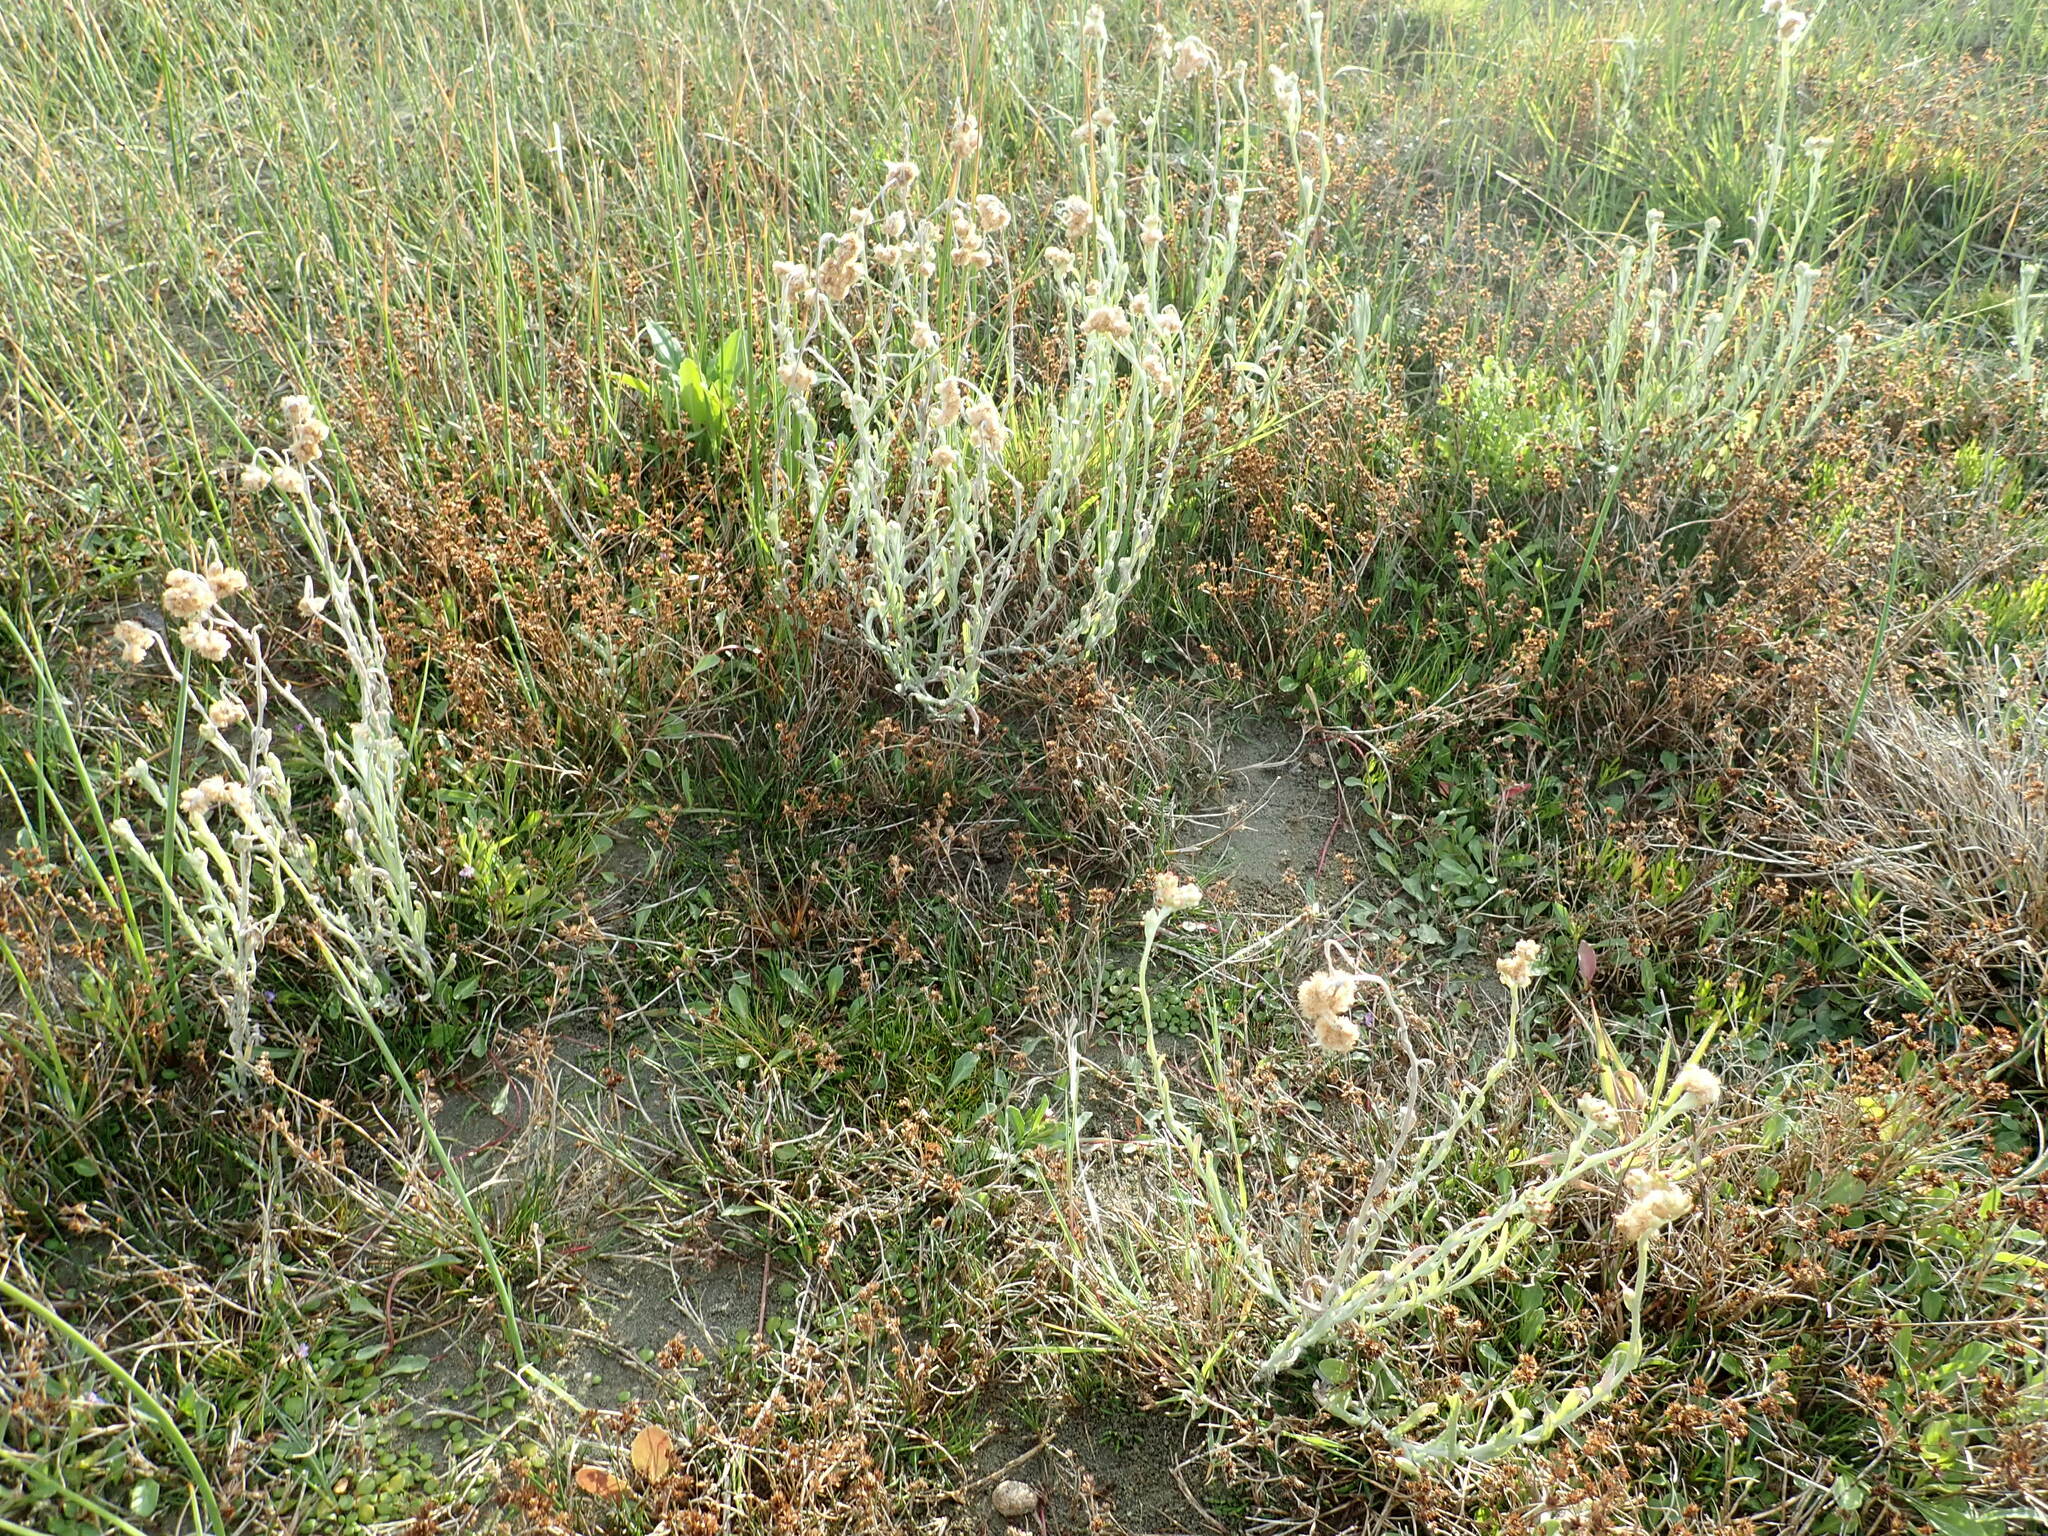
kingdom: Plantae
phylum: Tracheophyta
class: Liliopsida
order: Poales
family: Juncaceae
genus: Juncus
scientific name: Juncus articulatus
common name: Jointed rush
